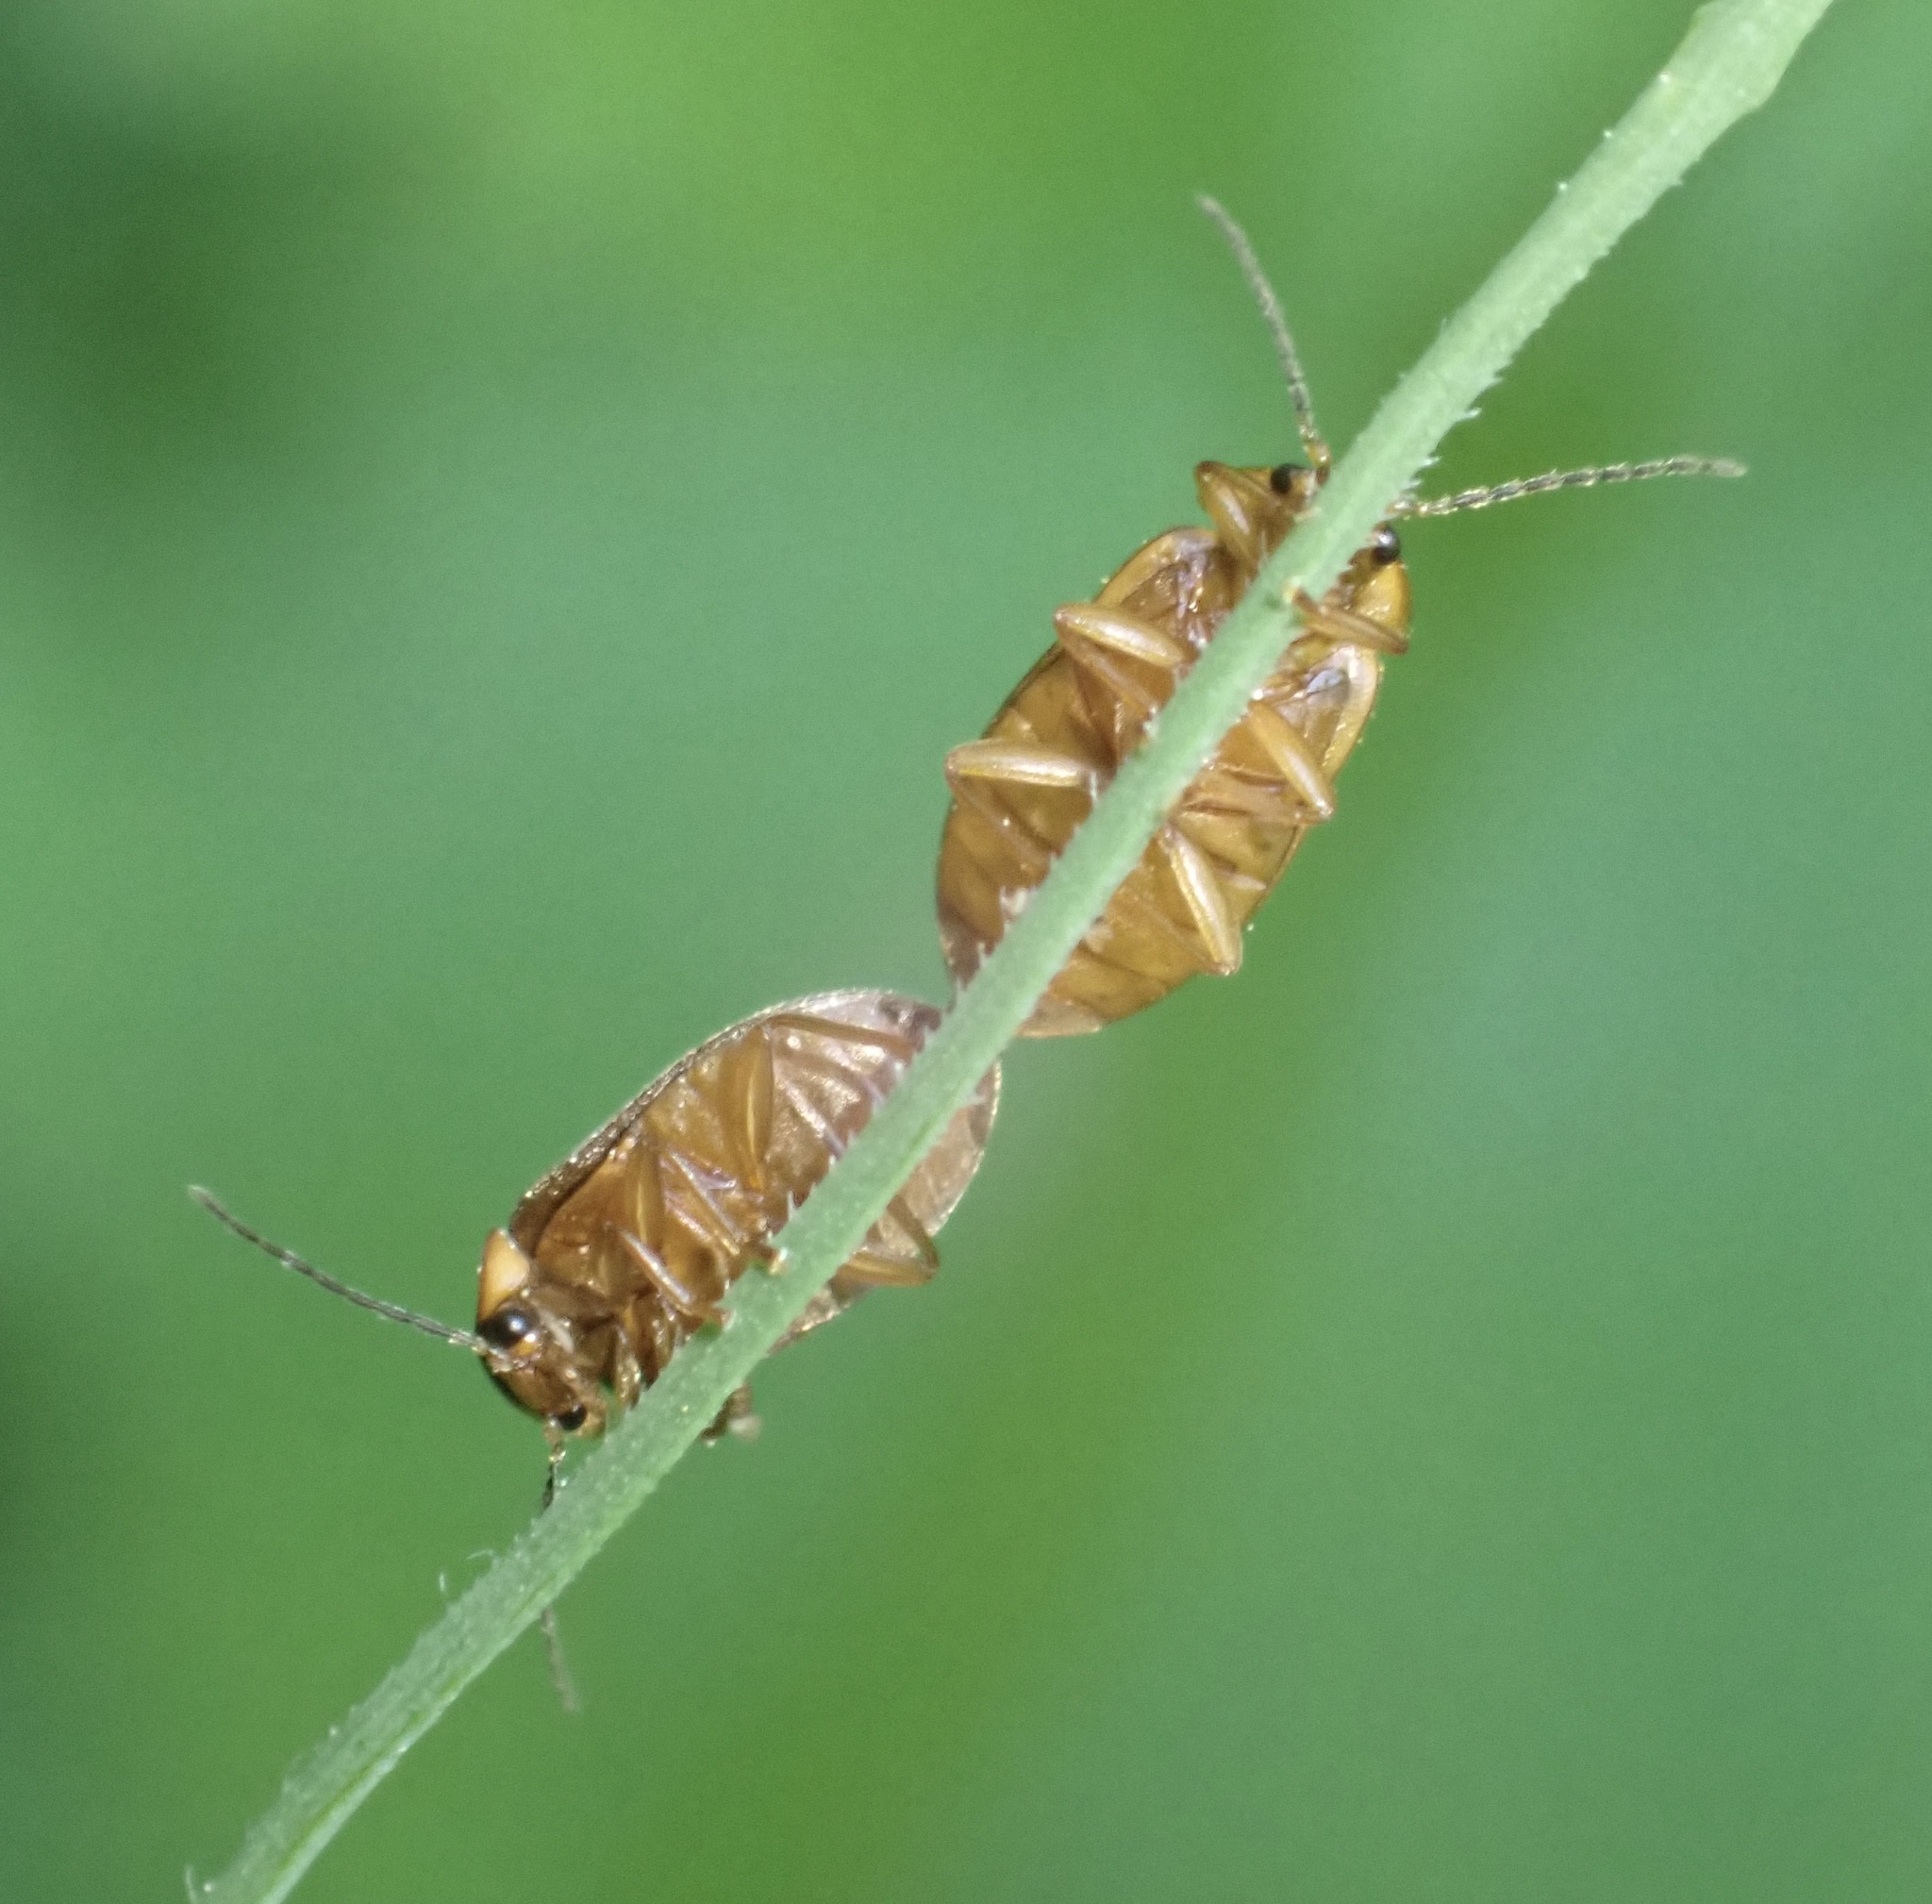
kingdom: Animalia
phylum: Arthropoda
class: Insecta
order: Coleoptera
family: Scirtidae
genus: Microcara
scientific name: Microcara testacea
